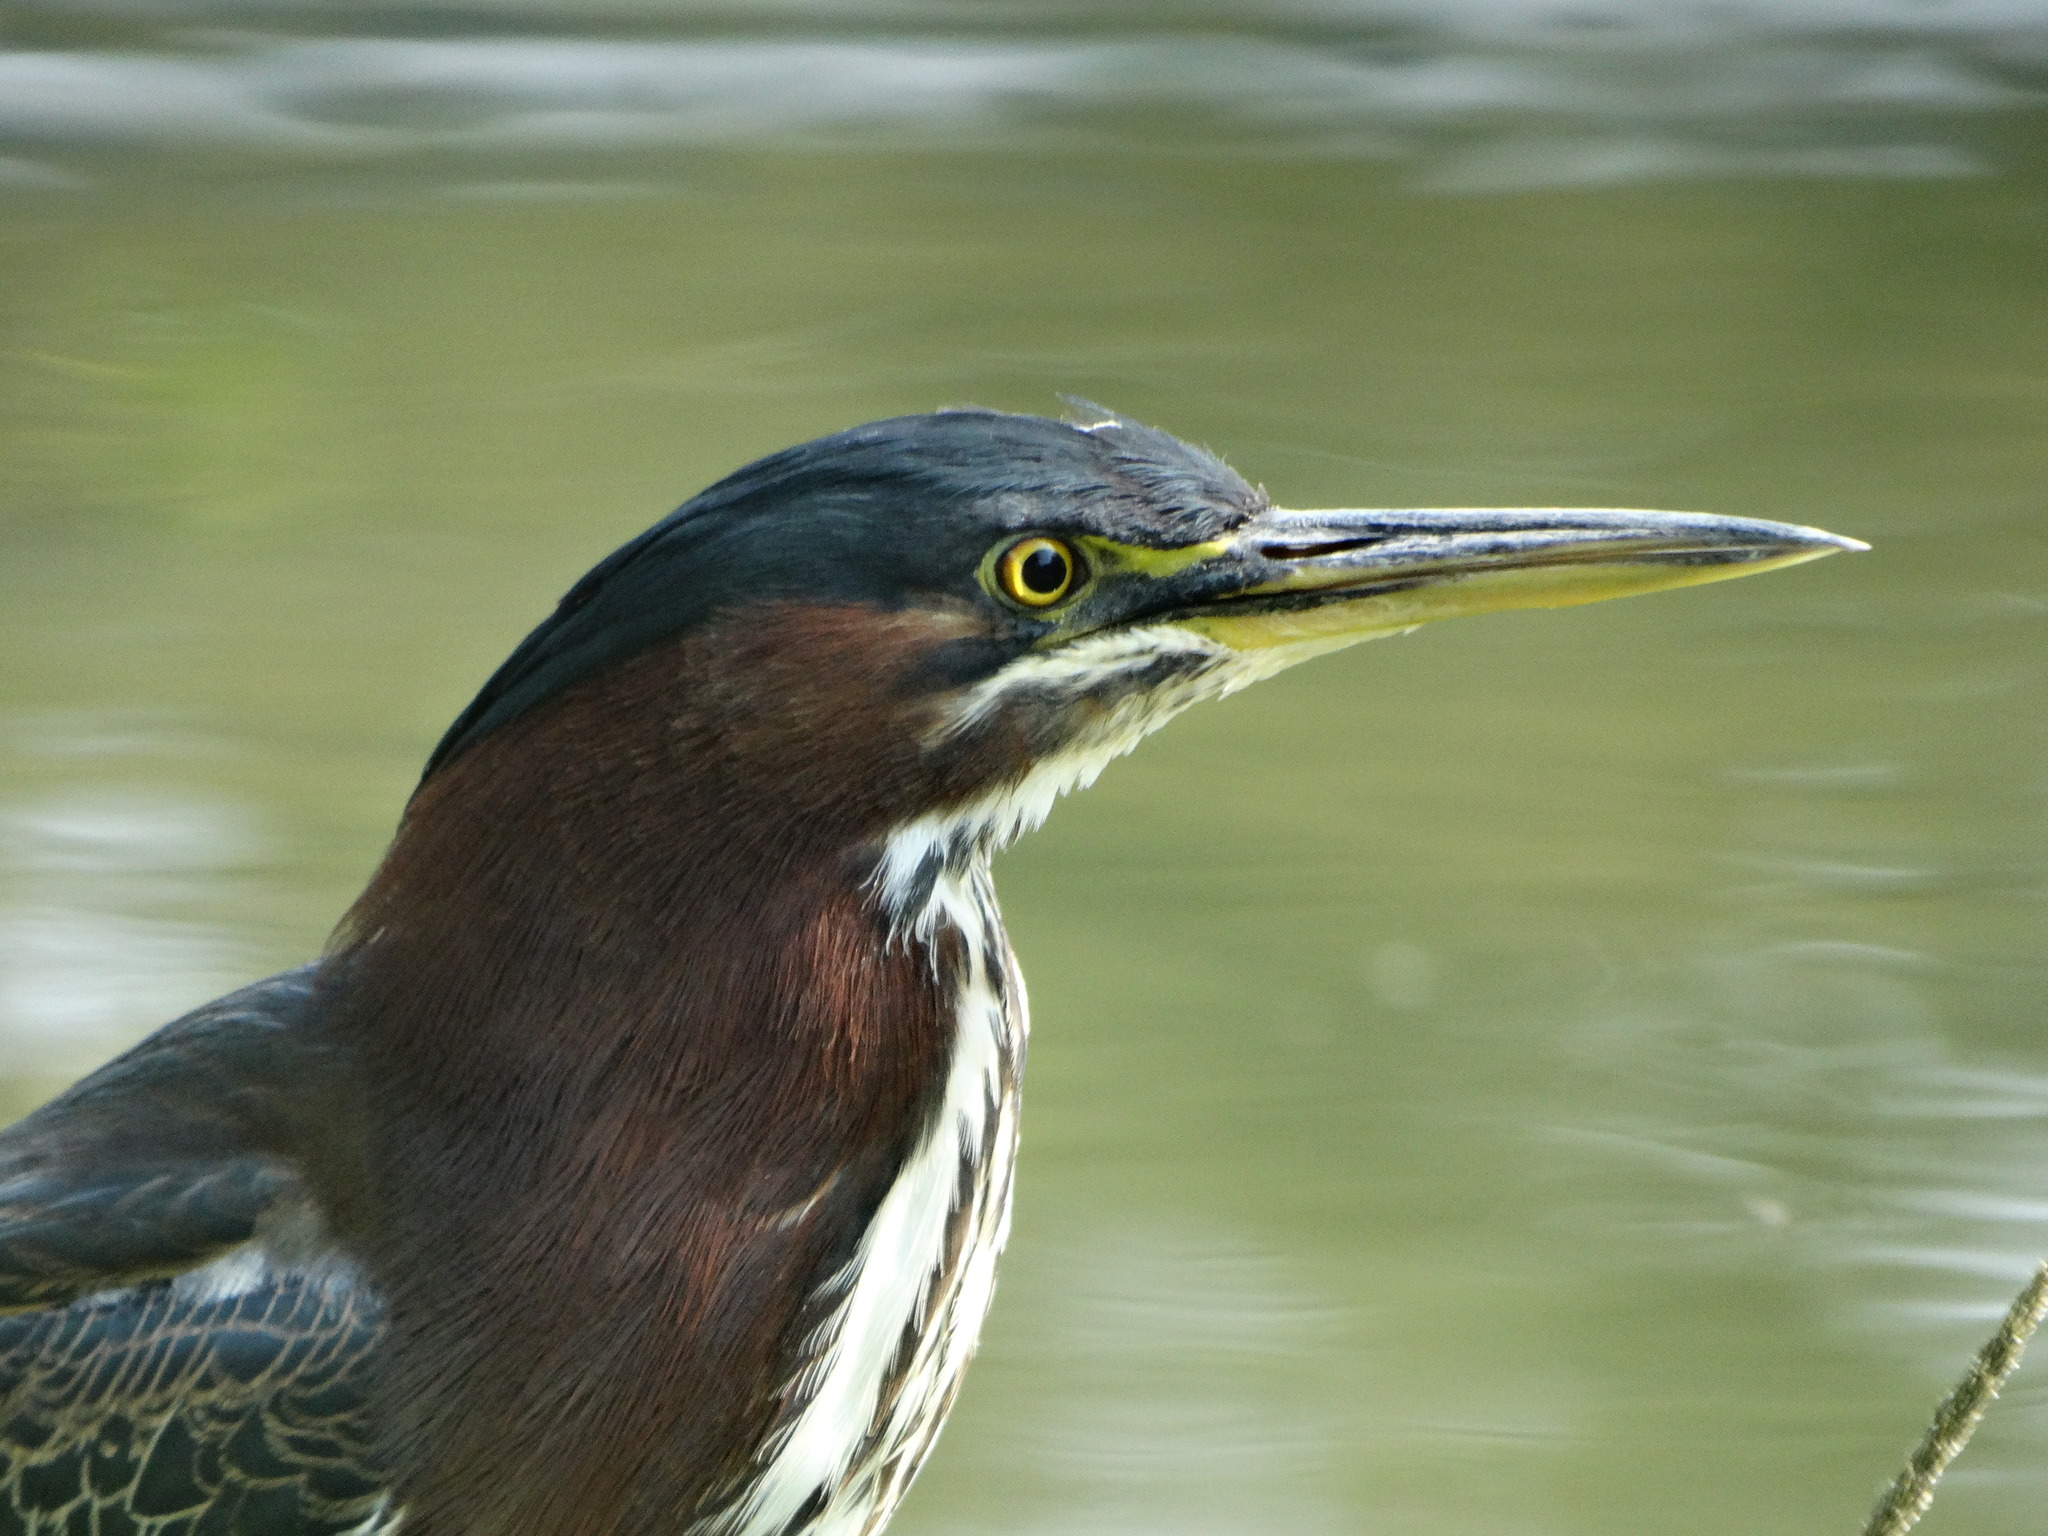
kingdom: Animalia
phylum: Chordata
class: Aves
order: Pelecaniformes
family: Ardeidae
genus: Butorides
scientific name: Butorides virescens
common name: Green heron
